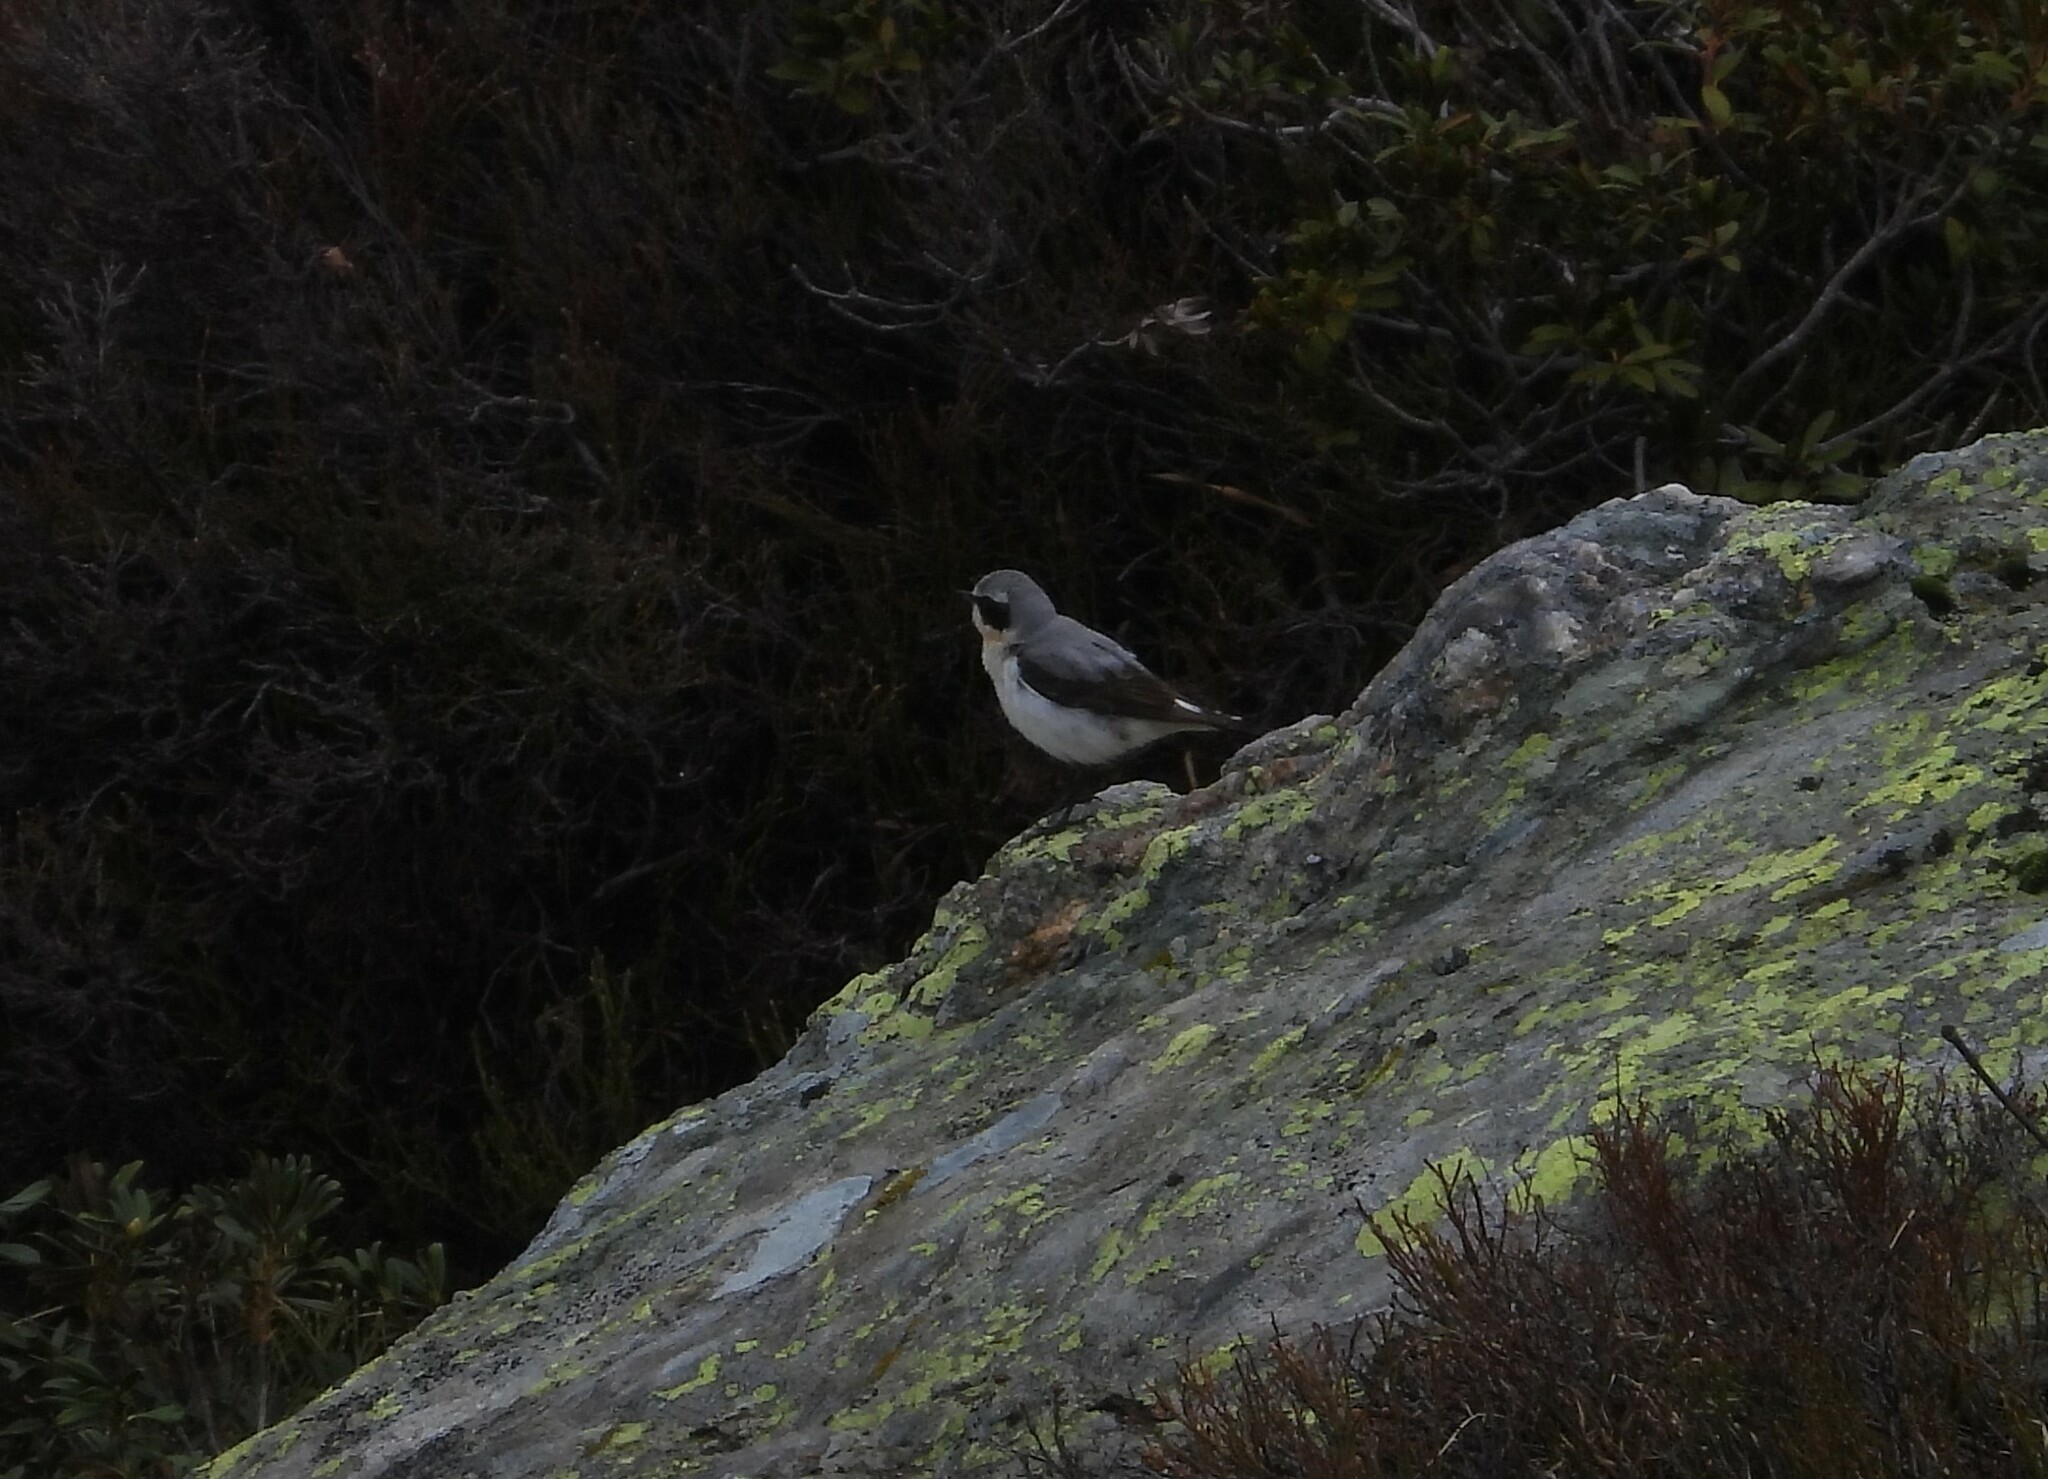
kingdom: Animalia
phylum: Chordata
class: Aves
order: Passeriformes
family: Muscicapidae
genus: Oenanthe
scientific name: Oenanthe oenanthe
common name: Northern wheatear
